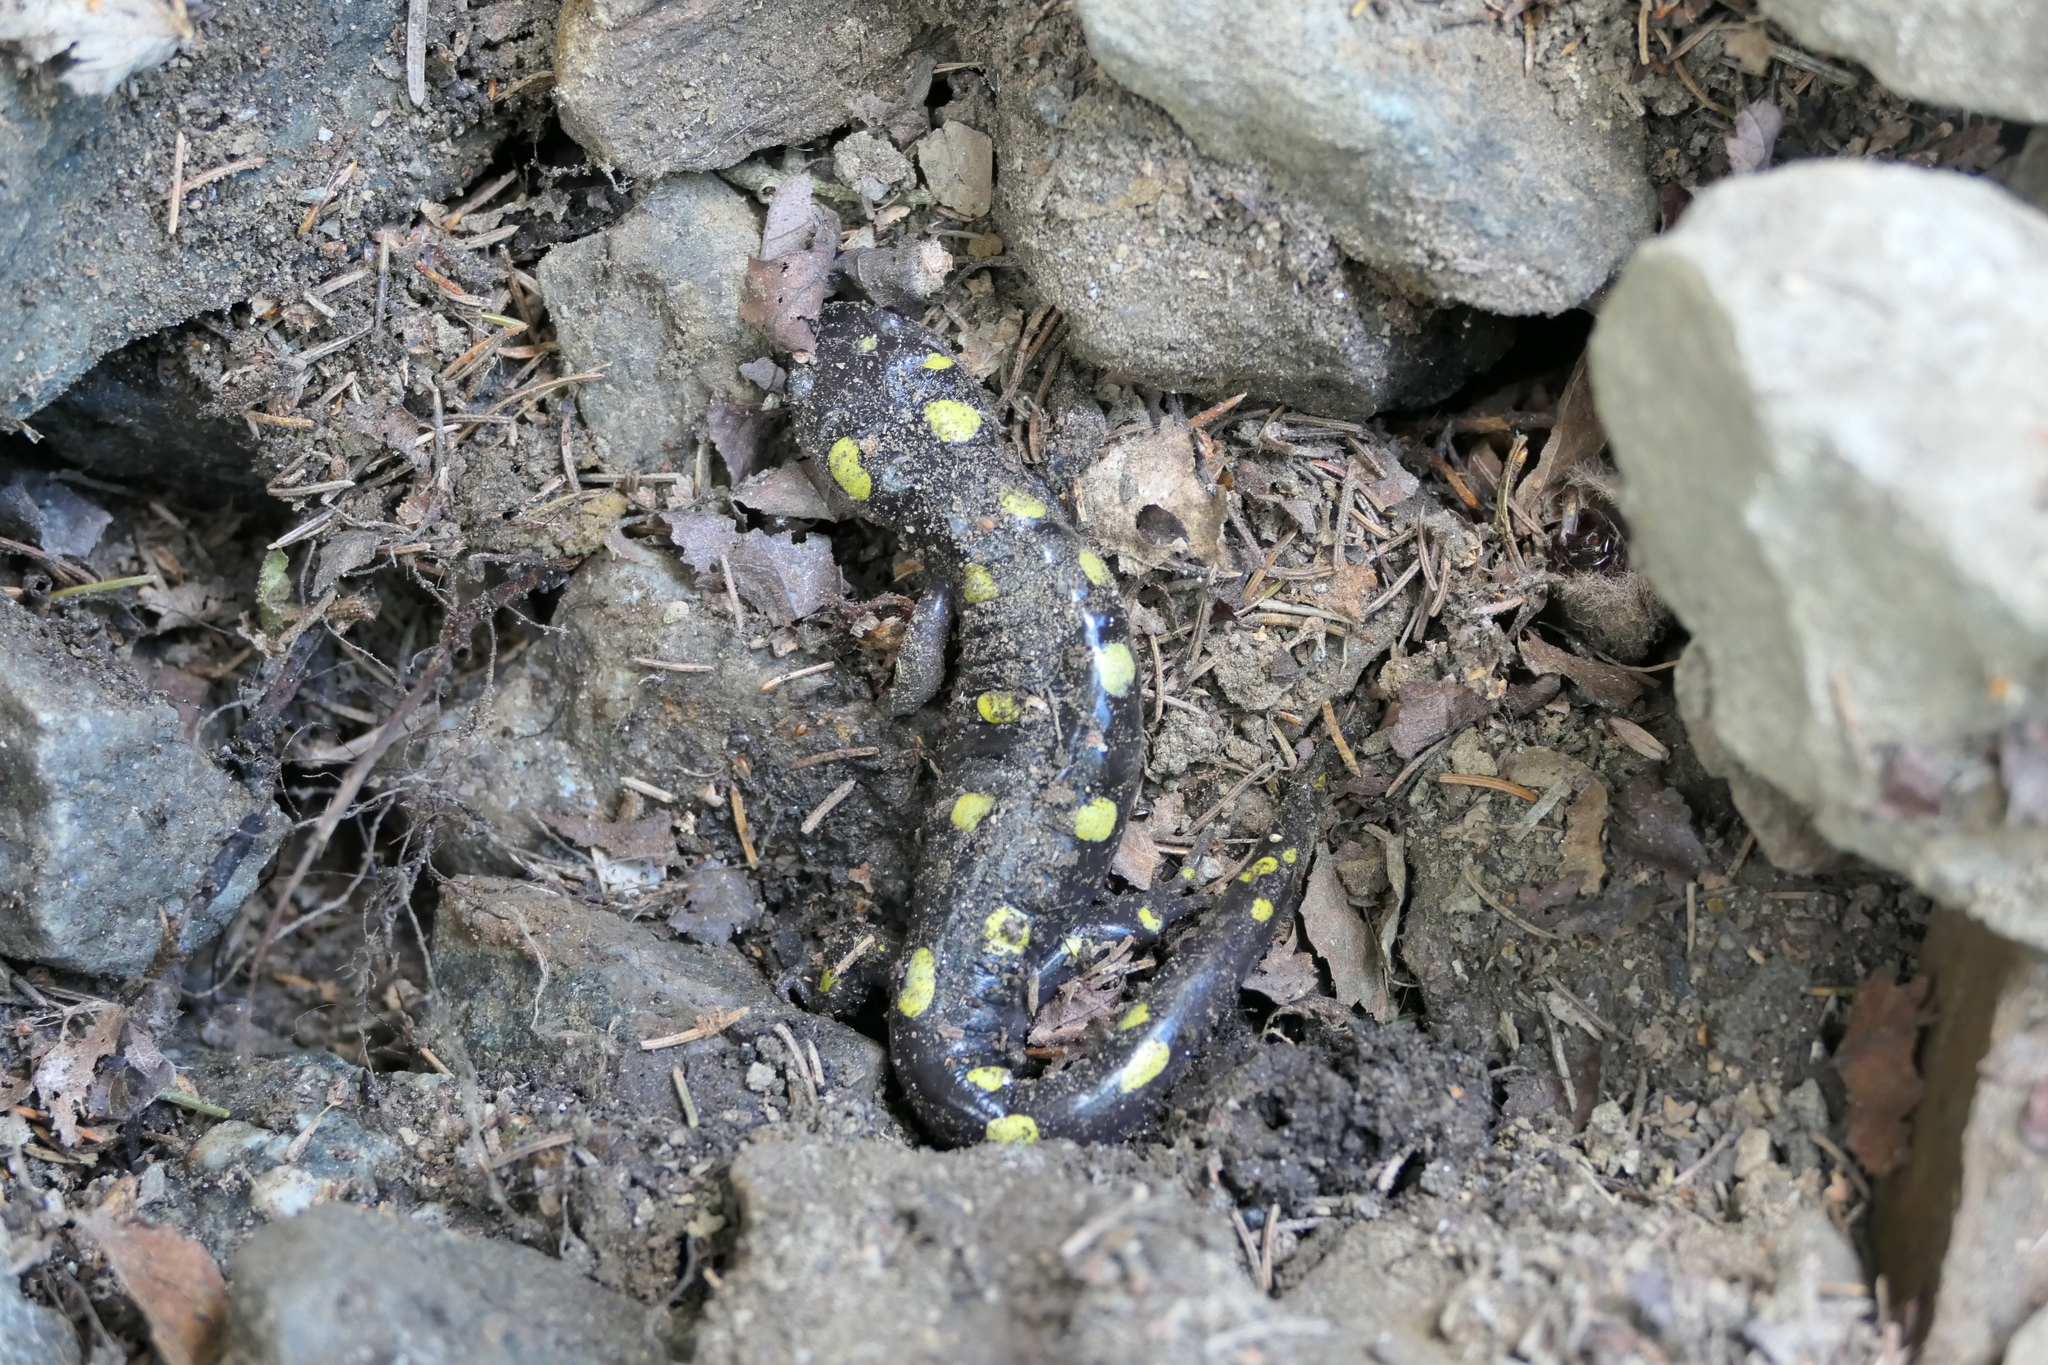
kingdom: Animalia
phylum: Chordata
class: Amphibia
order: Caudata
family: Ambystomatidae
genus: Ambystoma
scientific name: Ambystoma maculatum
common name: Spotted salamander
